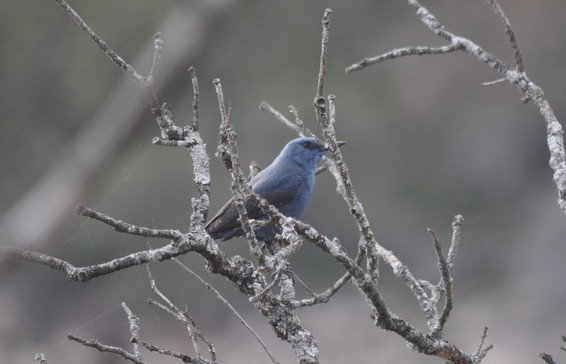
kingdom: Animalia
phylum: Chordata
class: Aves
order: Passeriformes
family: Muscicapidae
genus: Monticola
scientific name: Monticola solitarius
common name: Blue rock thrush
